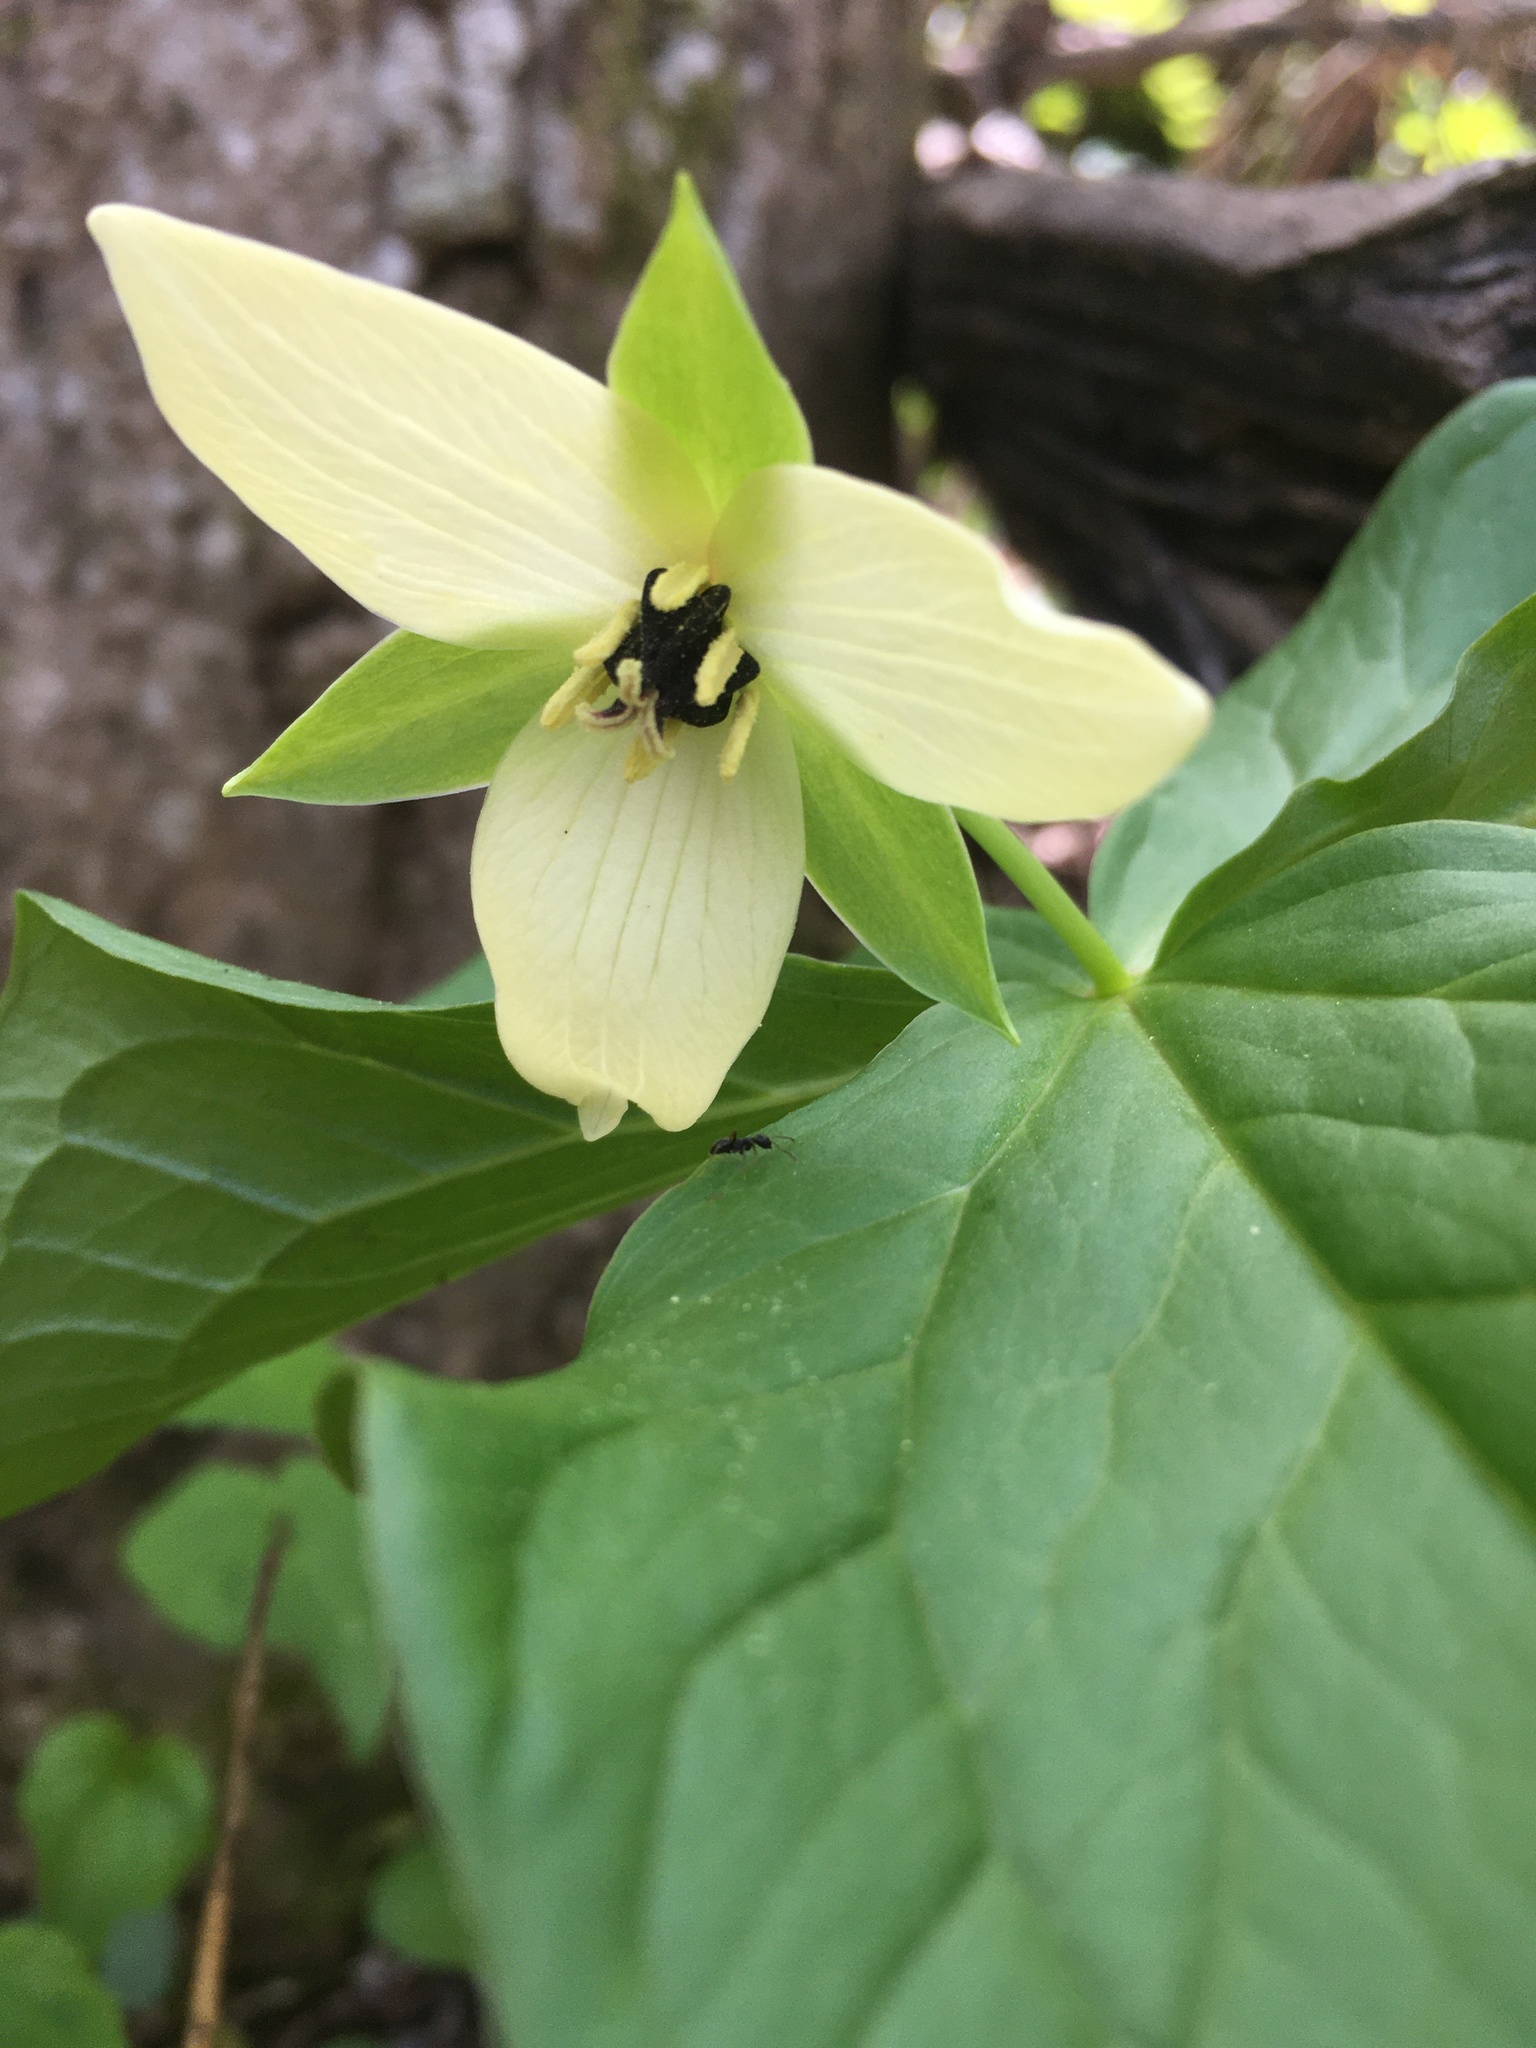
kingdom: Plantae
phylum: Tracheophyta
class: Liliopsida
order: Liliales
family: Melanthiaceae
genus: Trillium
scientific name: Trillium erectum
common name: Purple trillium
